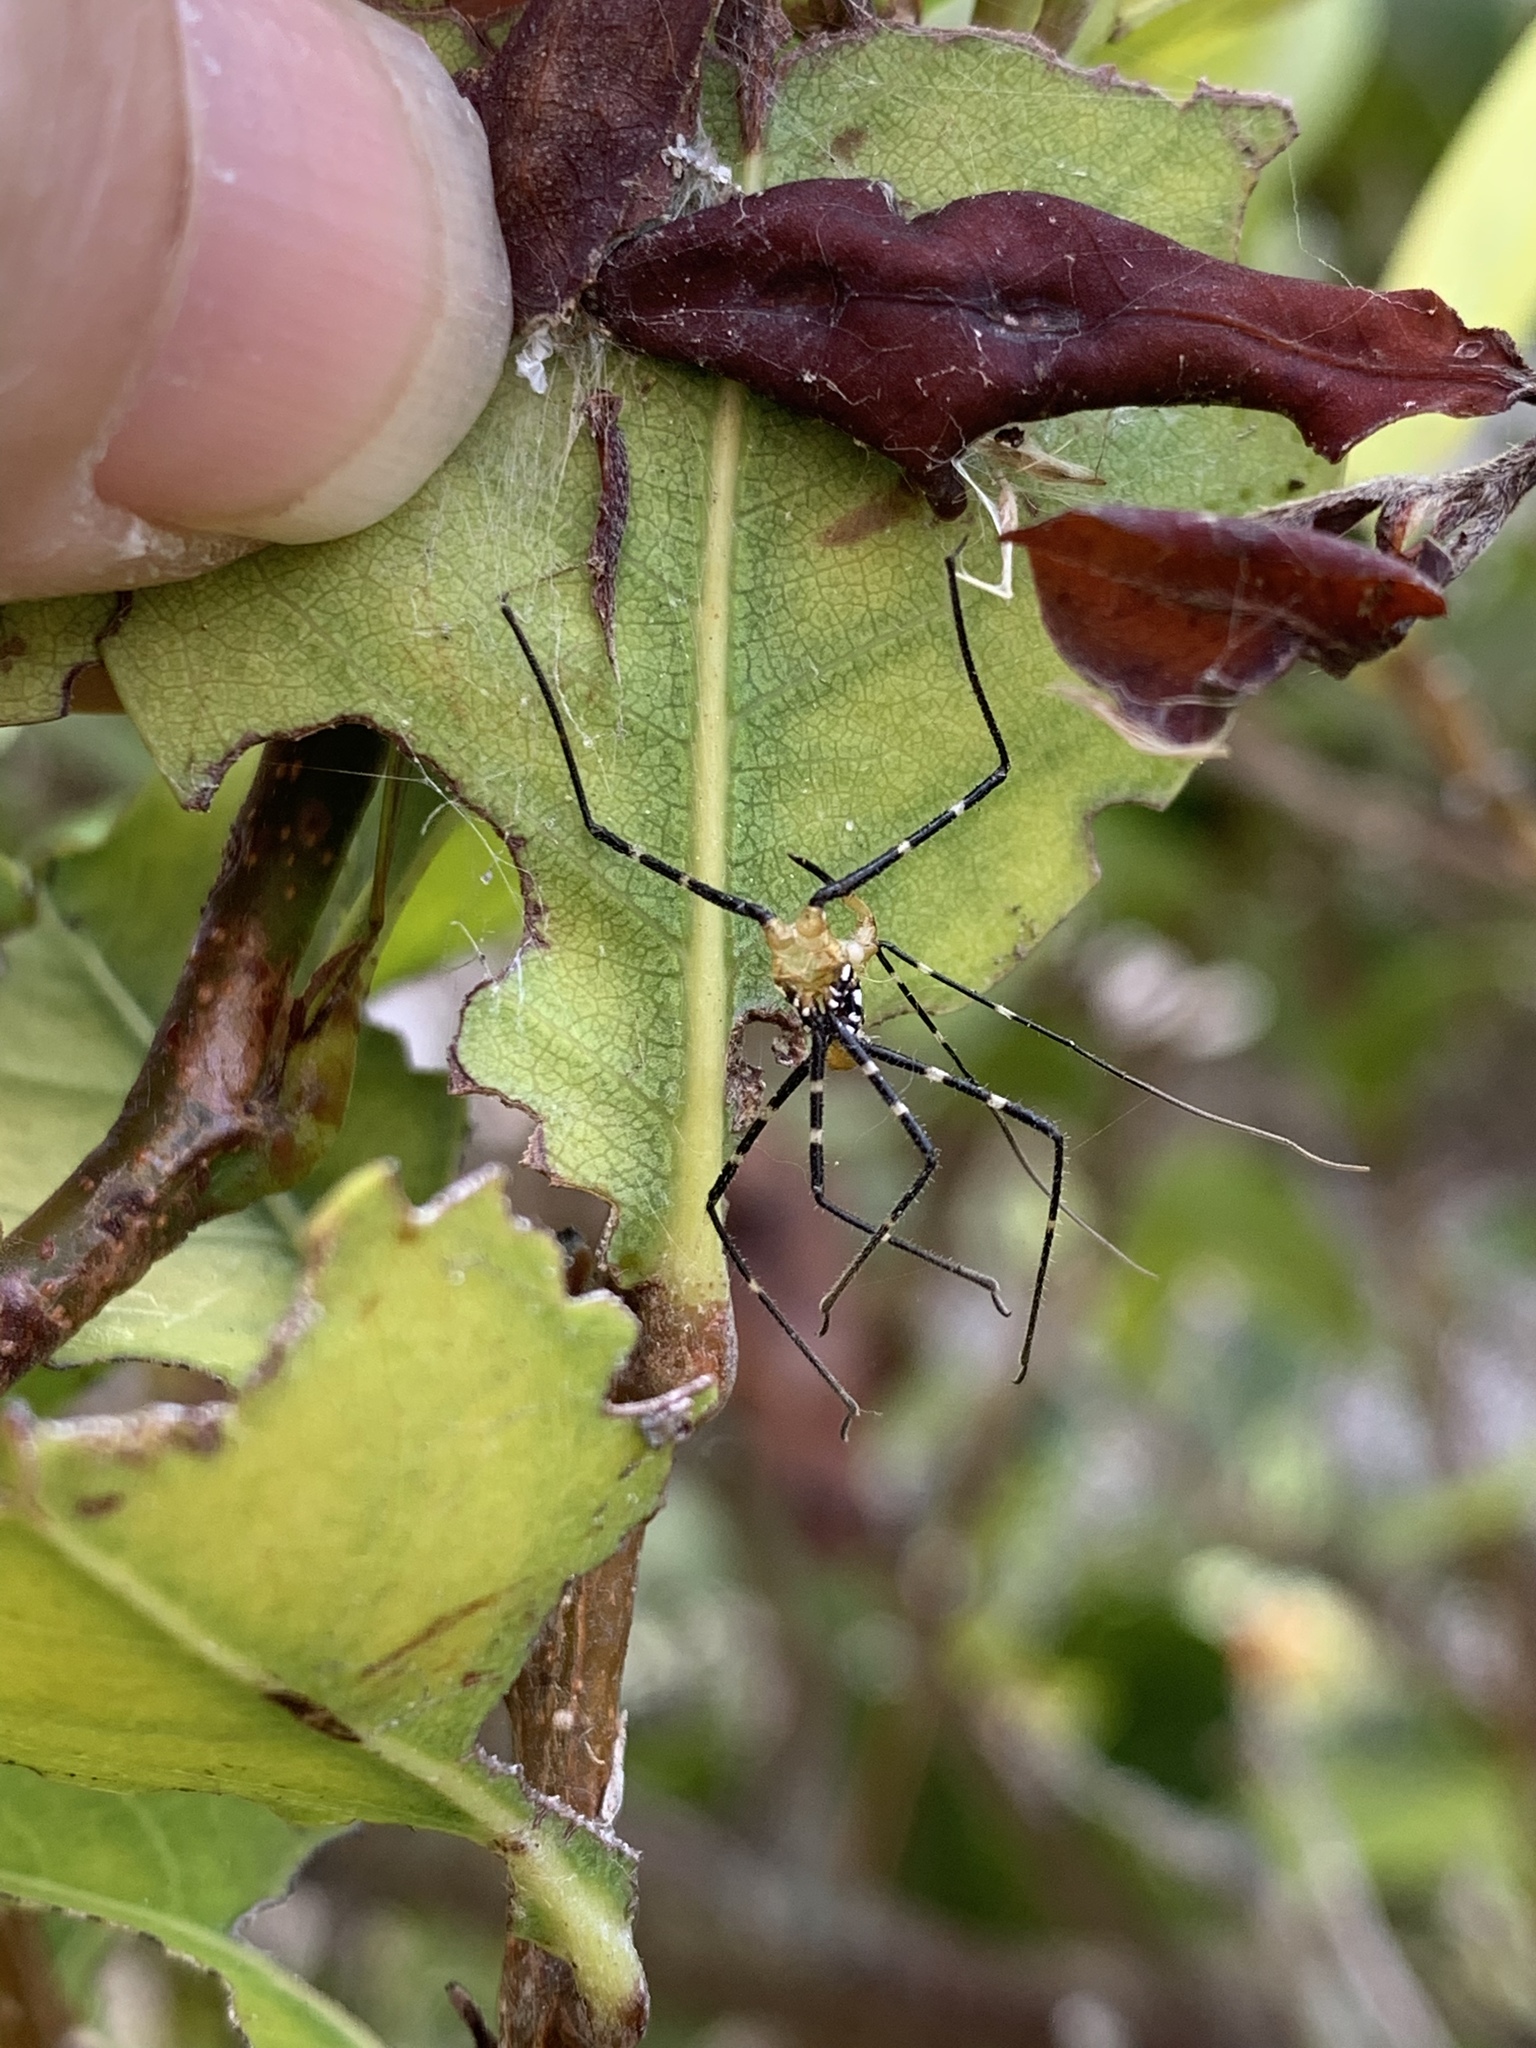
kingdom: Animalia
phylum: Arthropoda
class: Insecta
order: Hemiptera
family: Reduviidae
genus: Zelus
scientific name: Zelus longipes
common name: Milkweed assassin bug
